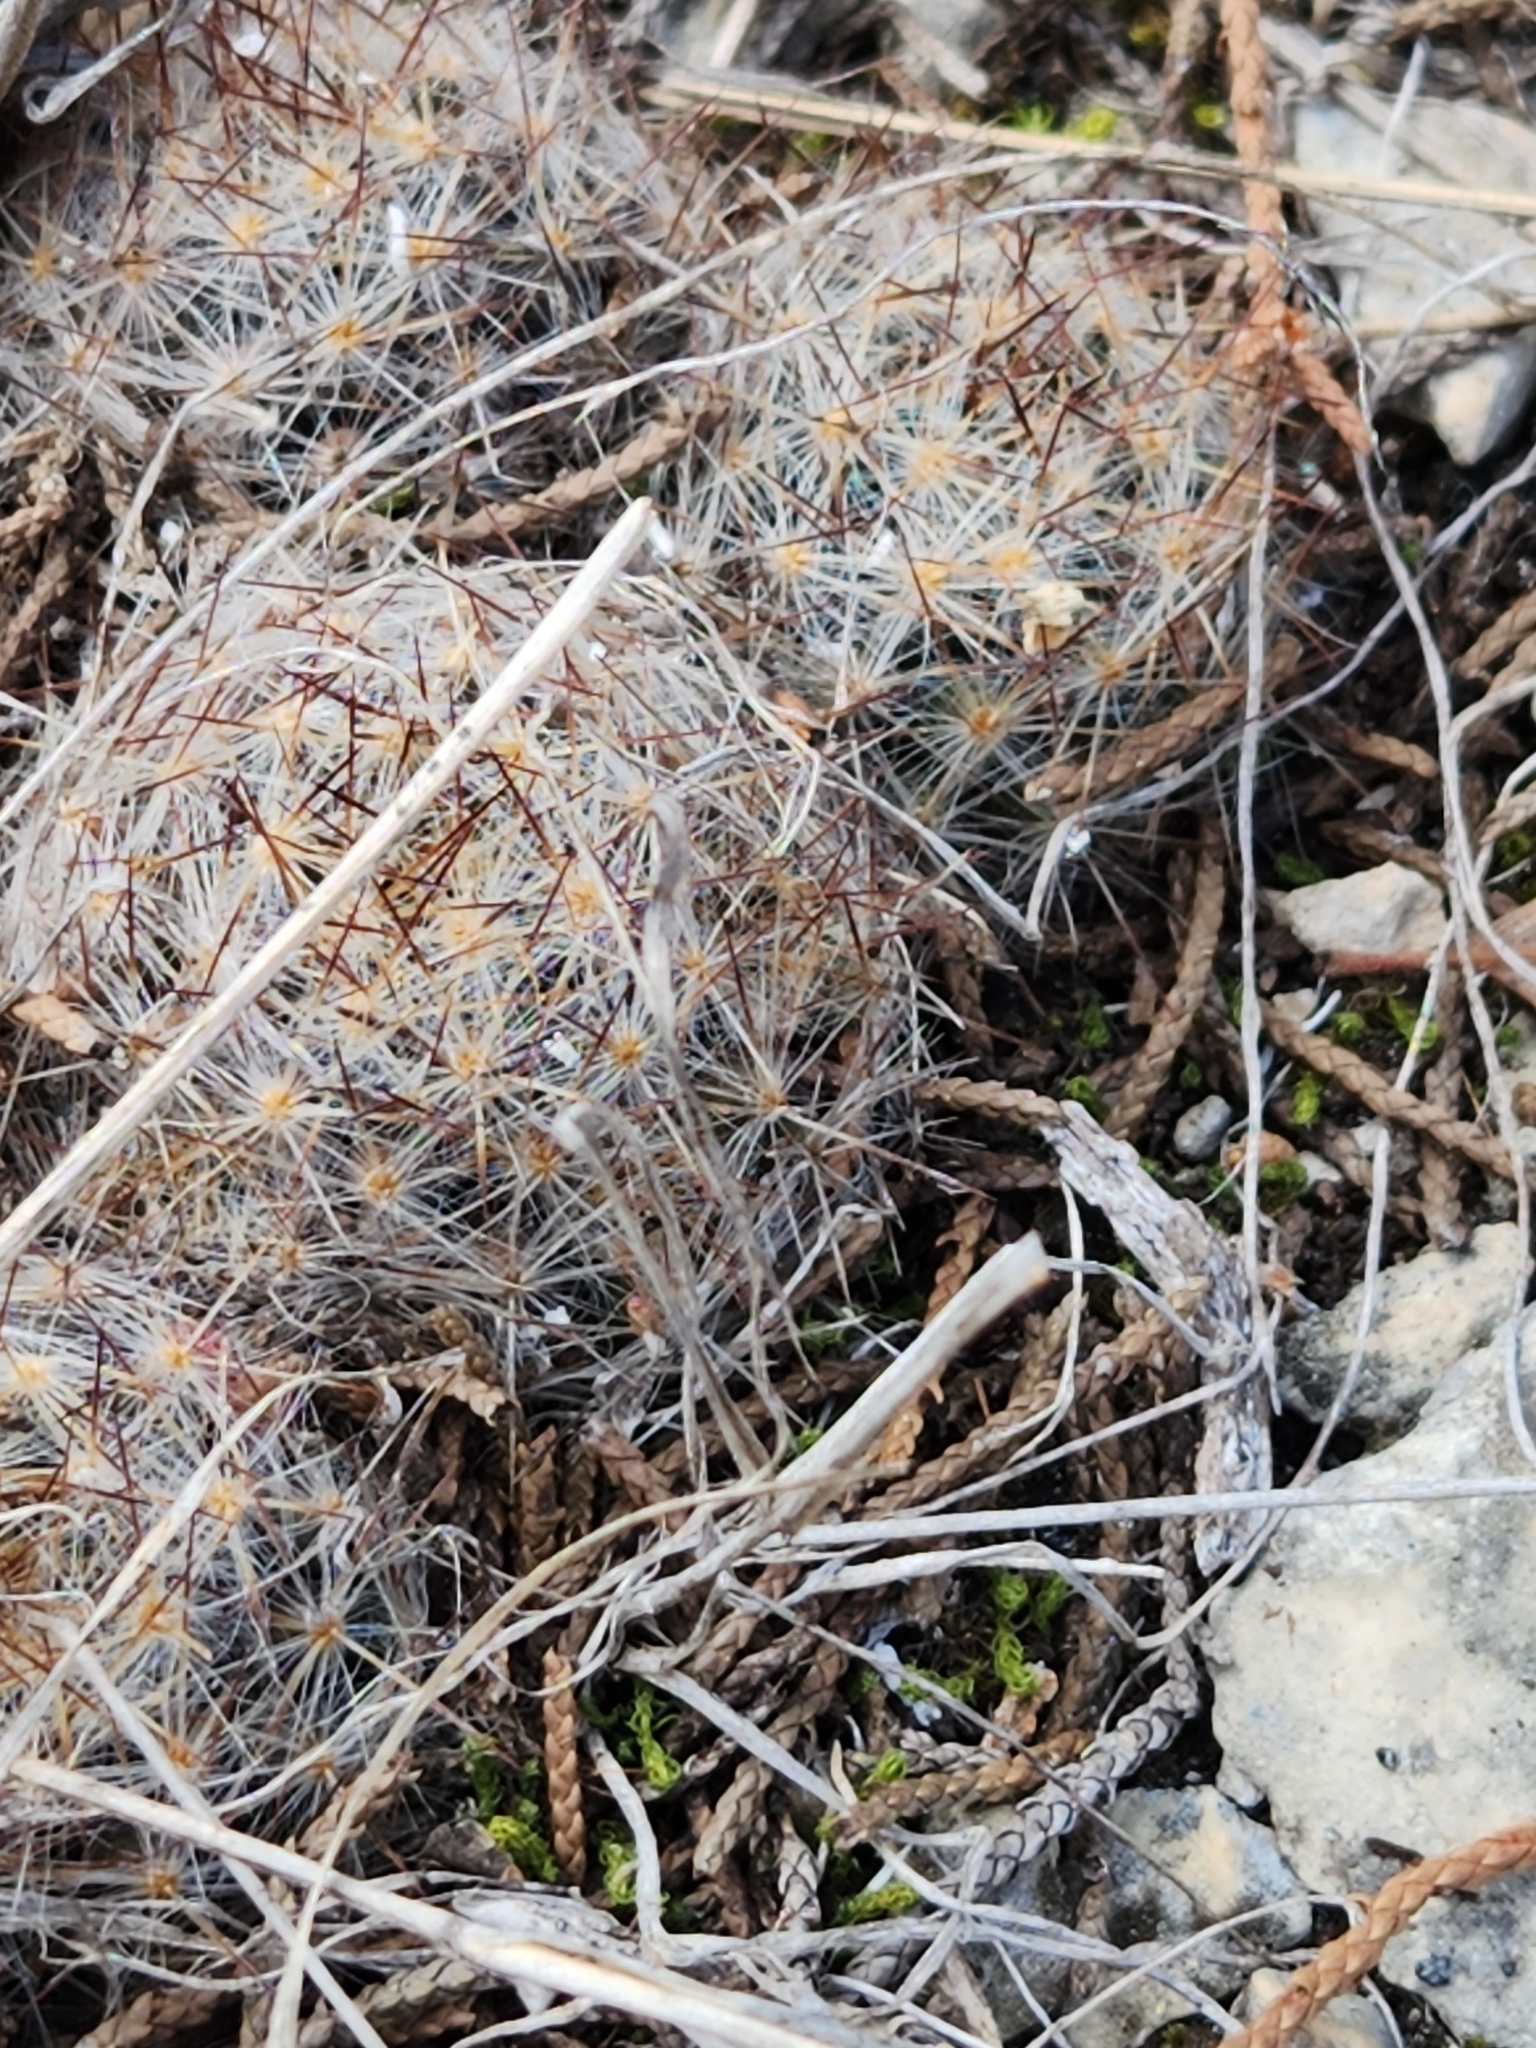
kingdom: Plantae
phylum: Tracheophyta
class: Magnoliopsida
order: Caryophyllales
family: Cactaceae
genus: Mammillaria
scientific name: Mammillaria prolifera
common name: Texas nipple cactus
